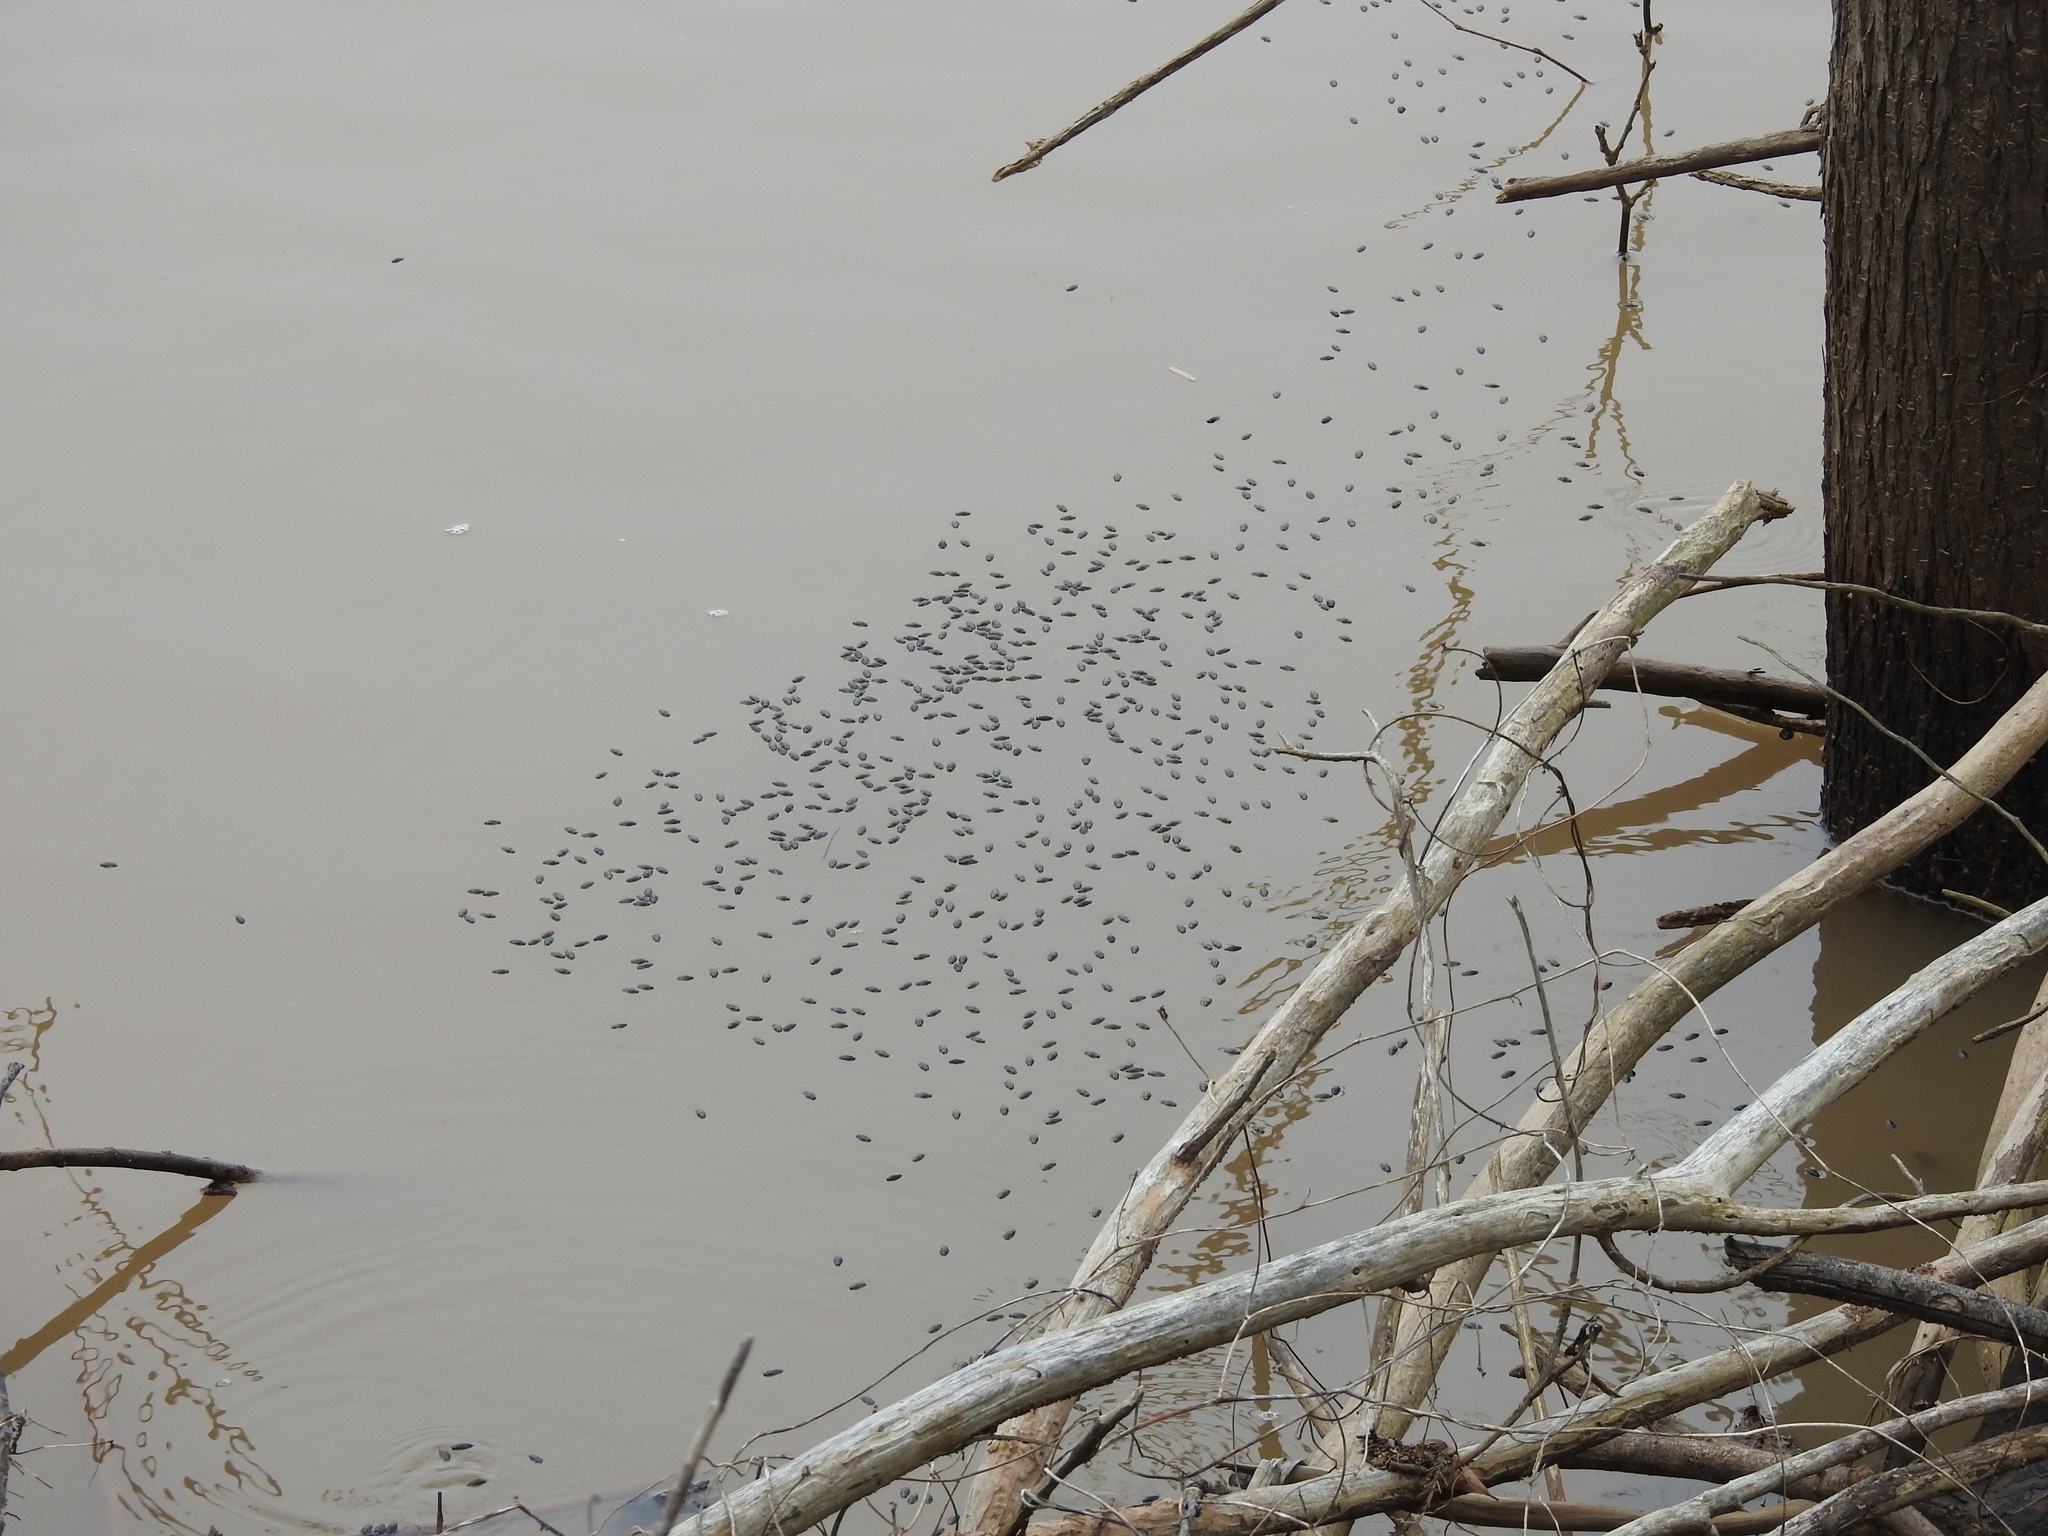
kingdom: Animalia
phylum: Arthropoda
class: Insecta
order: Coleoptera
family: Gyrinidae
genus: Dineutus
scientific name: Dineutus
